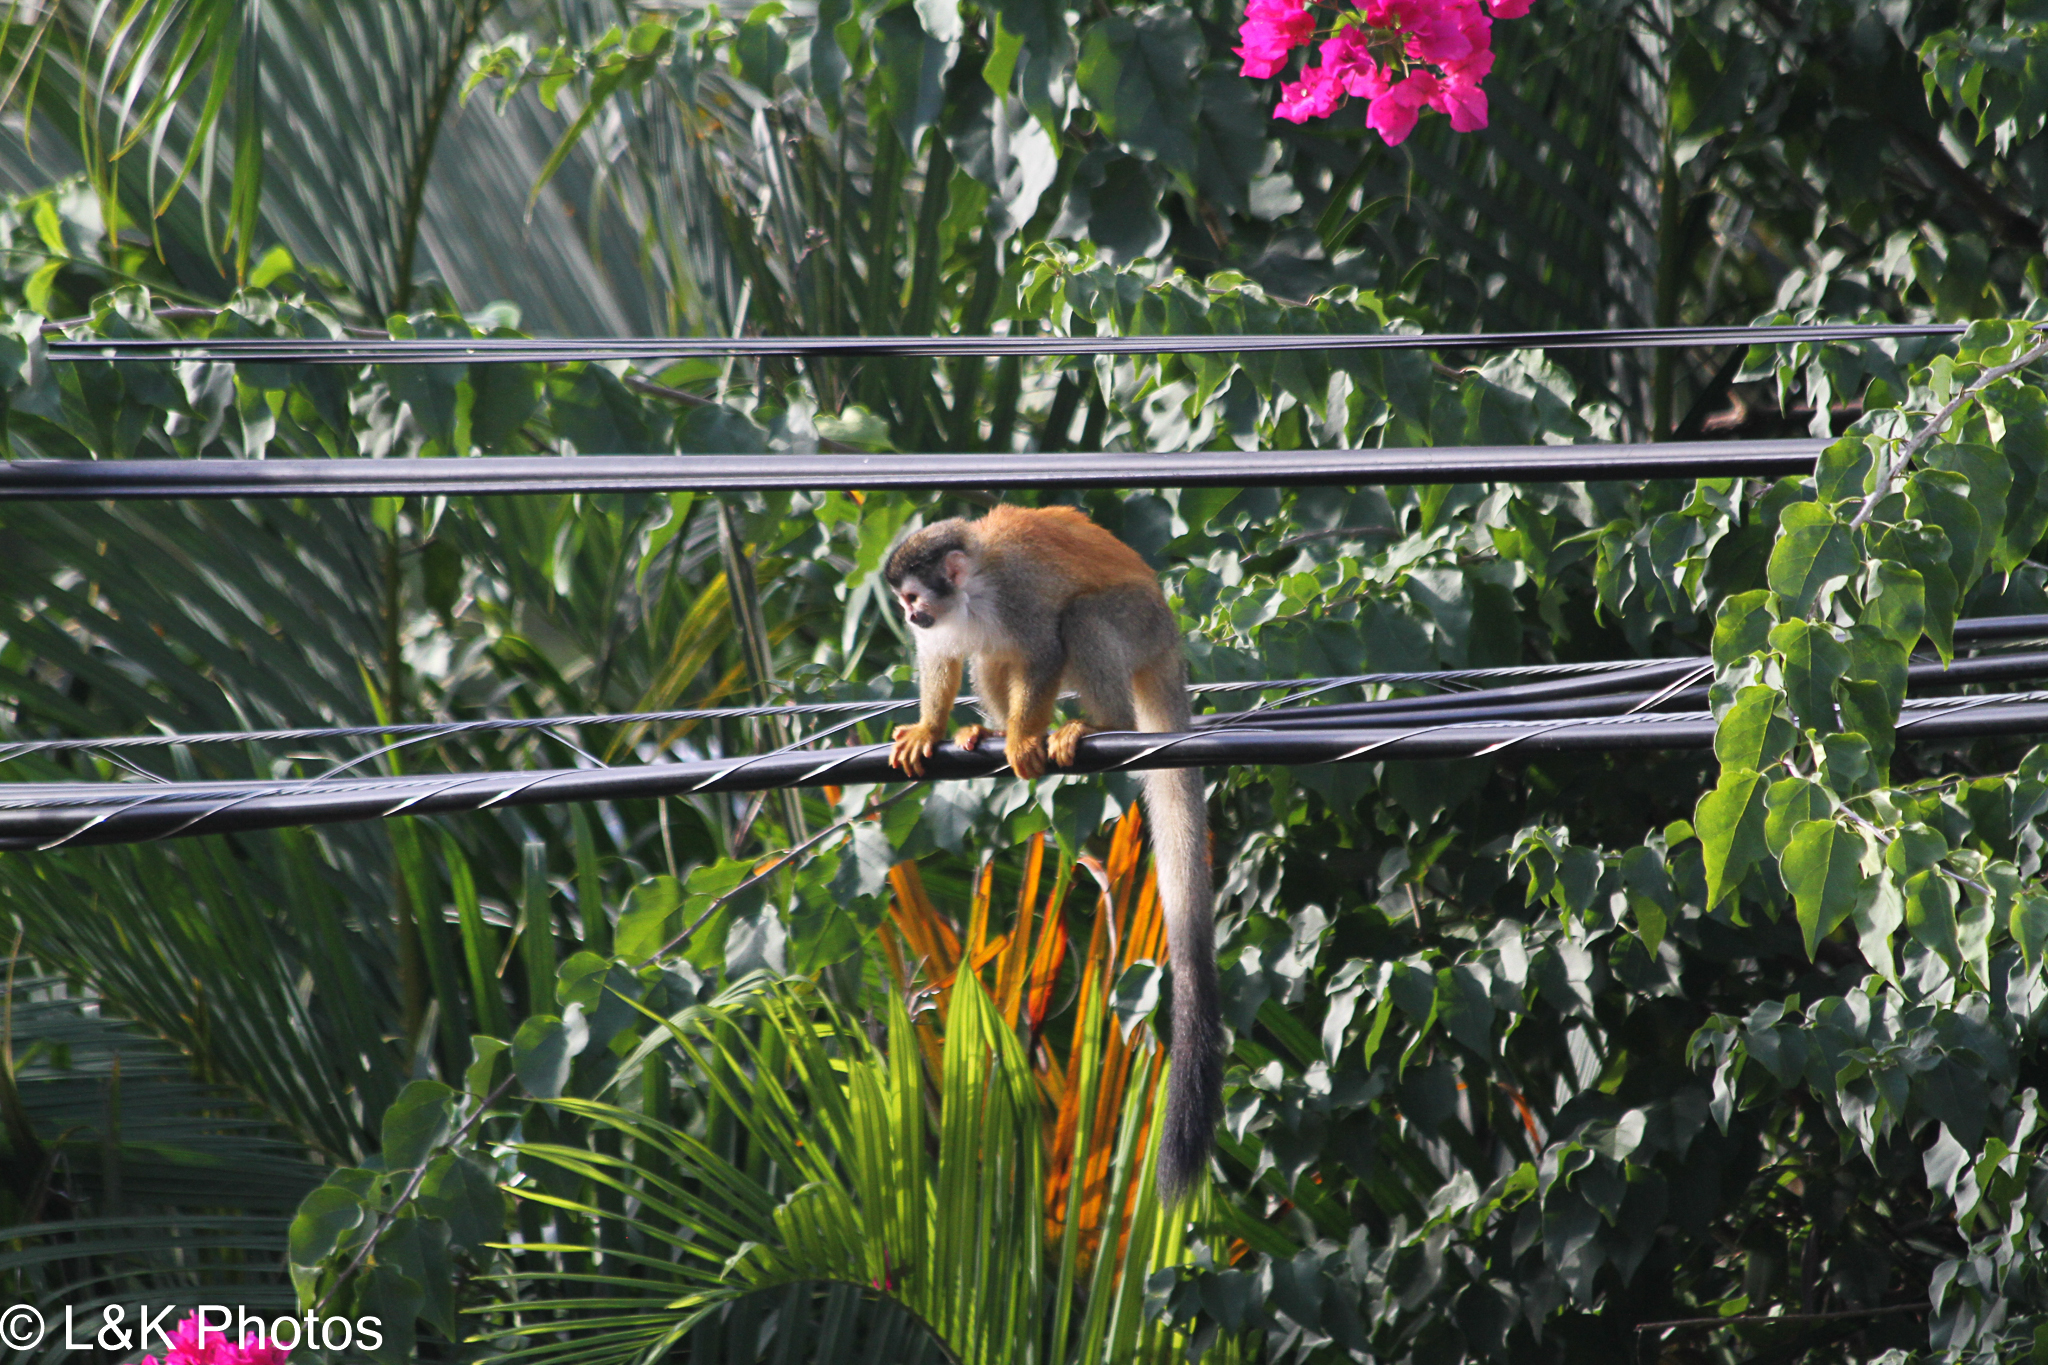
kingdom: Animalia
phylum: Chordata
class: Mammalia
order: Primates
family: Cebidae
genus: Saimiri
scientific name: Saimiri oerstedii
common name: Central american squirrel monkey
